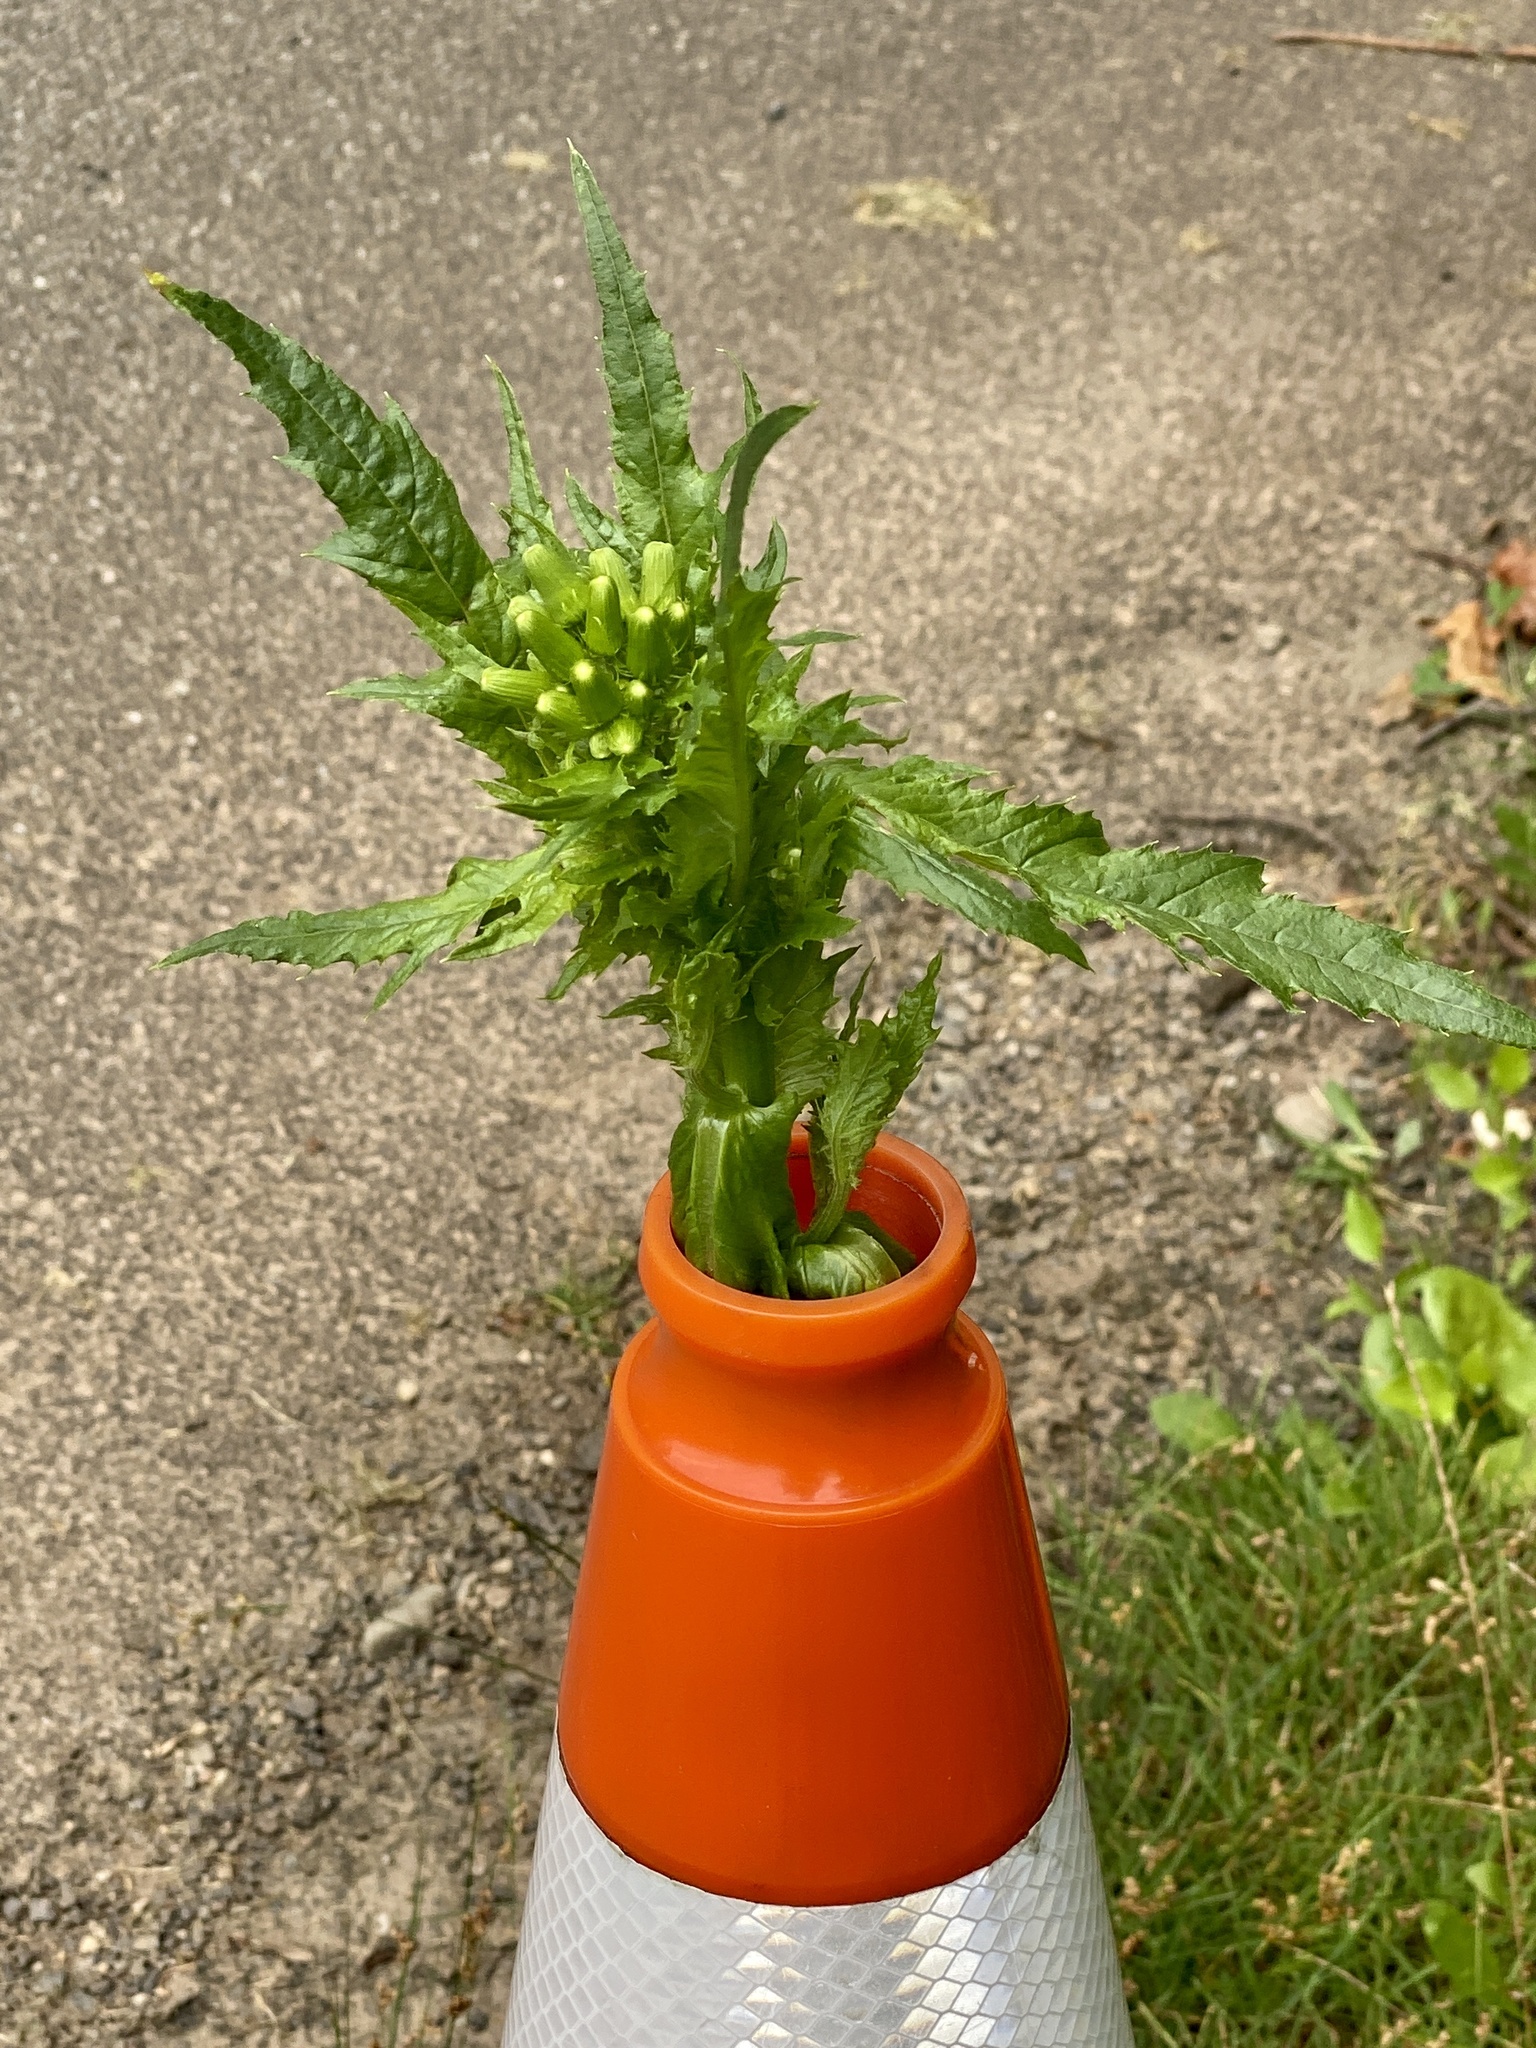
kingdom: Plantae
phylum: Tracheophyta
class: Magnoliopsida
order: Asterales
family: Asteraceae
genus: Erechtites
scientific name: Erechtites hieraciifolius
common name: American burnweed
